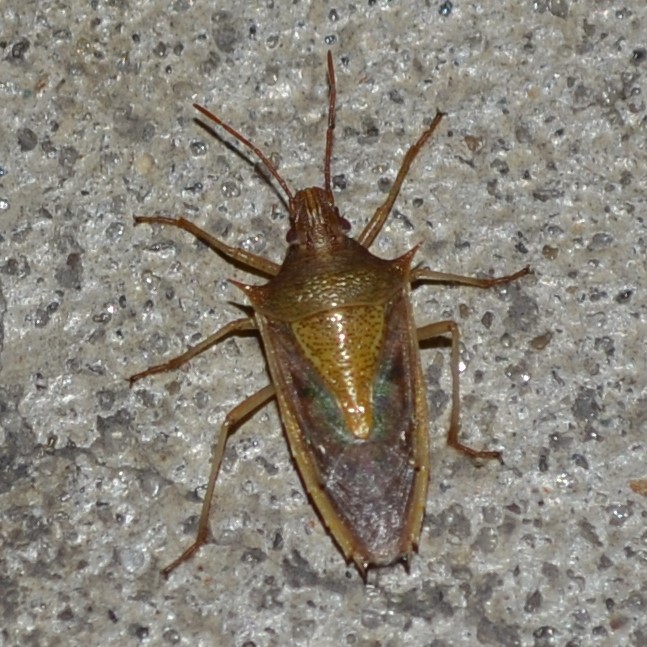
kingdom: Animalia
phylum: Arthropoda
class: Insecta
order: Hemiptera
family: Pentatomidae
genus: Oebalus
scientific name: Oebalus pugnax
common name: Rice stink bug
